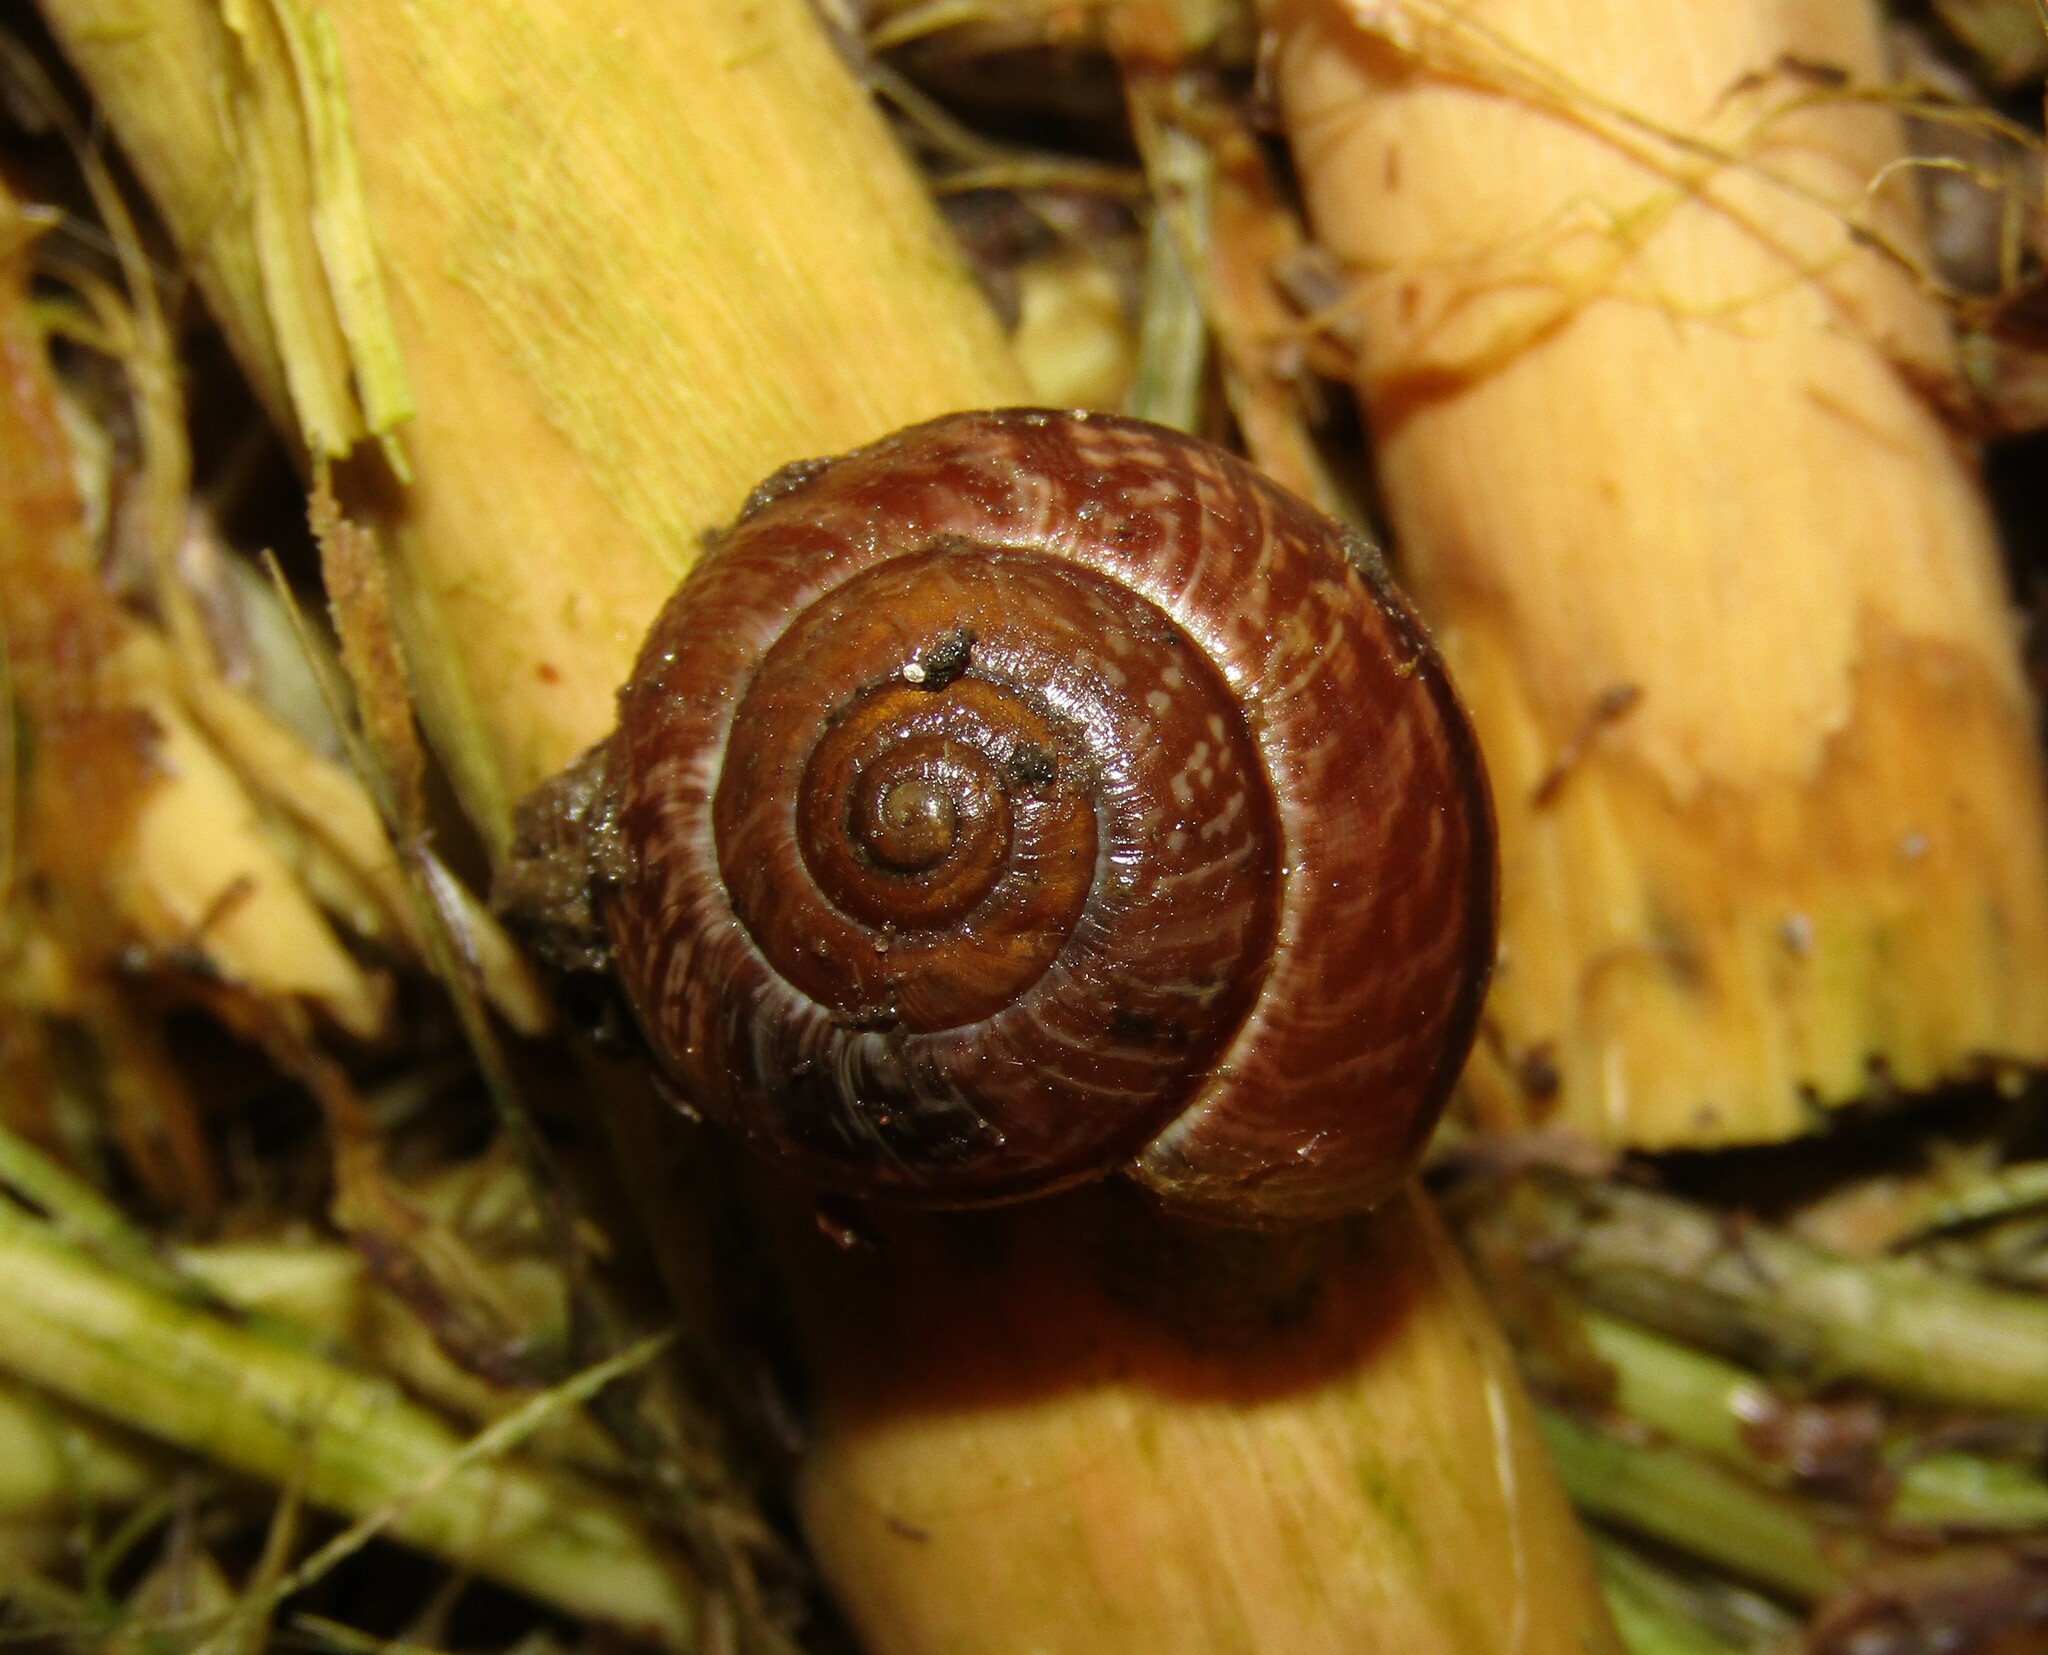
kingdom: Animalia
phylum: Mollusca
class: Gastropoda
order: Stylommatophora
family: Helicidae
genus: Arianta
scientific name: Arianta arbustorum
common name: Copse snail
